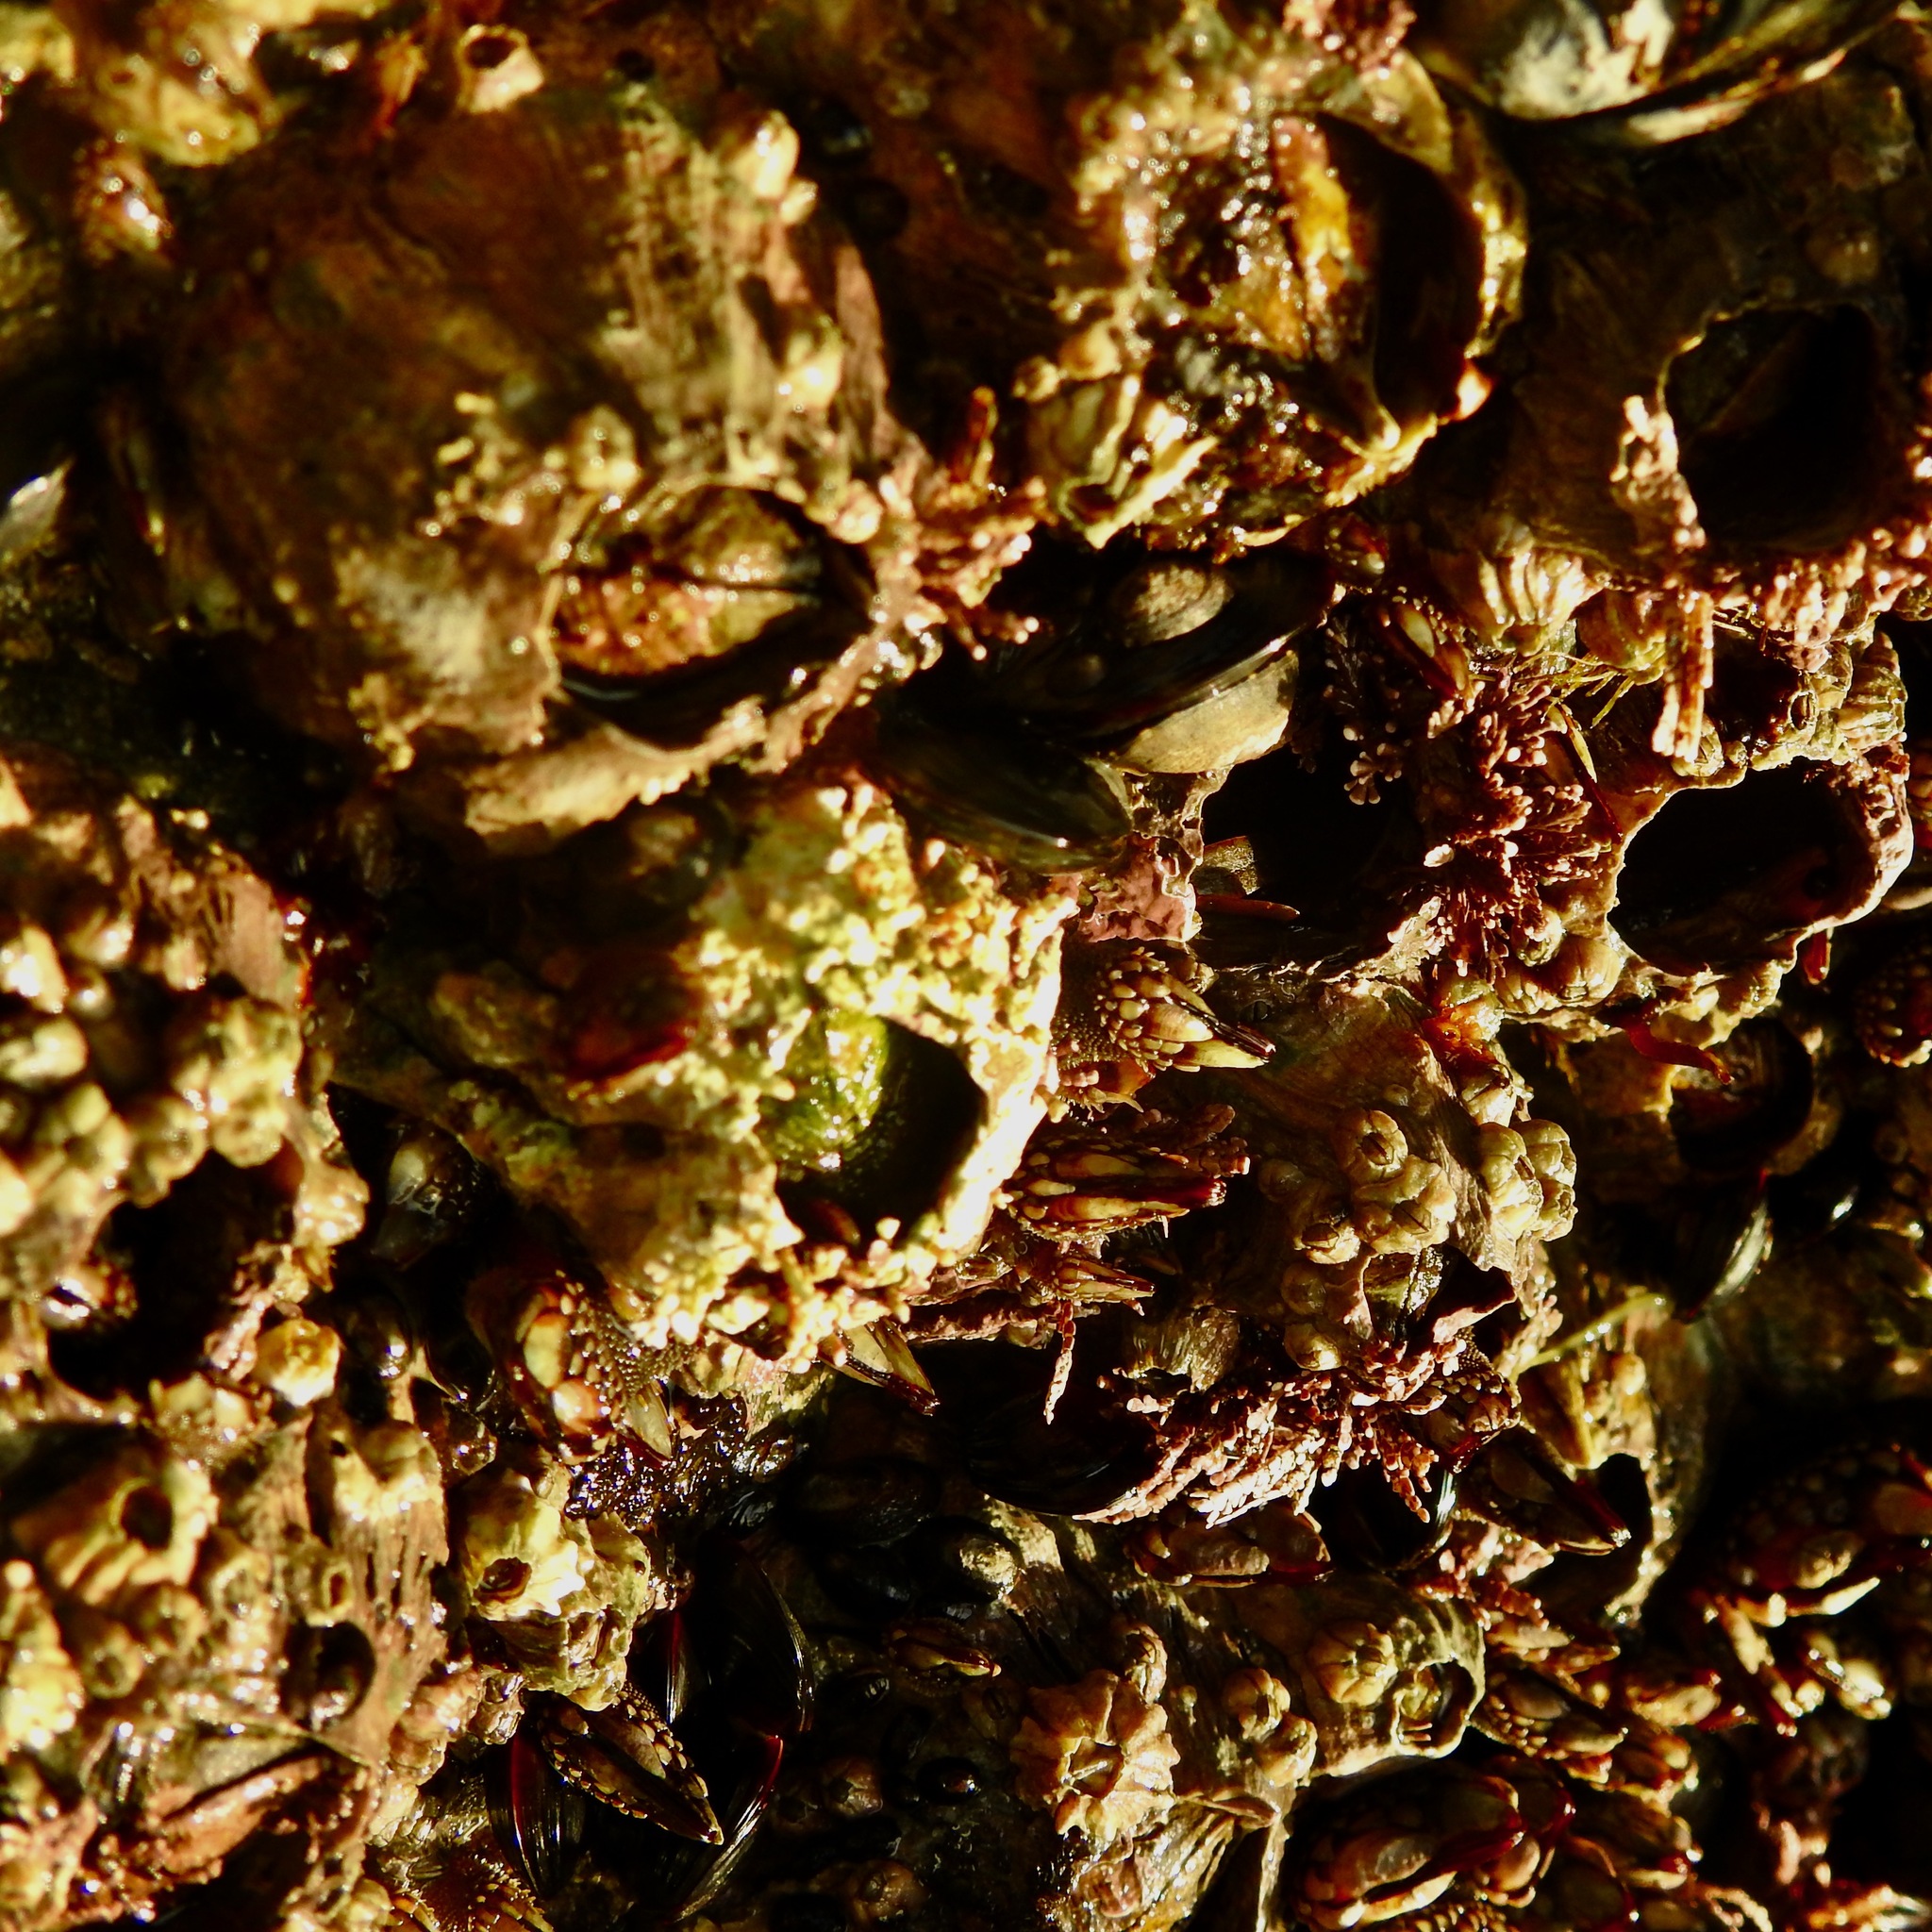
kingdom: Animalia
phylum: Arthropoda
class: Maxillopoda
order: Sessilia
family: Archaeobalanidae
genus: Semibalanus
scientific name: Semibalanus cariosus
